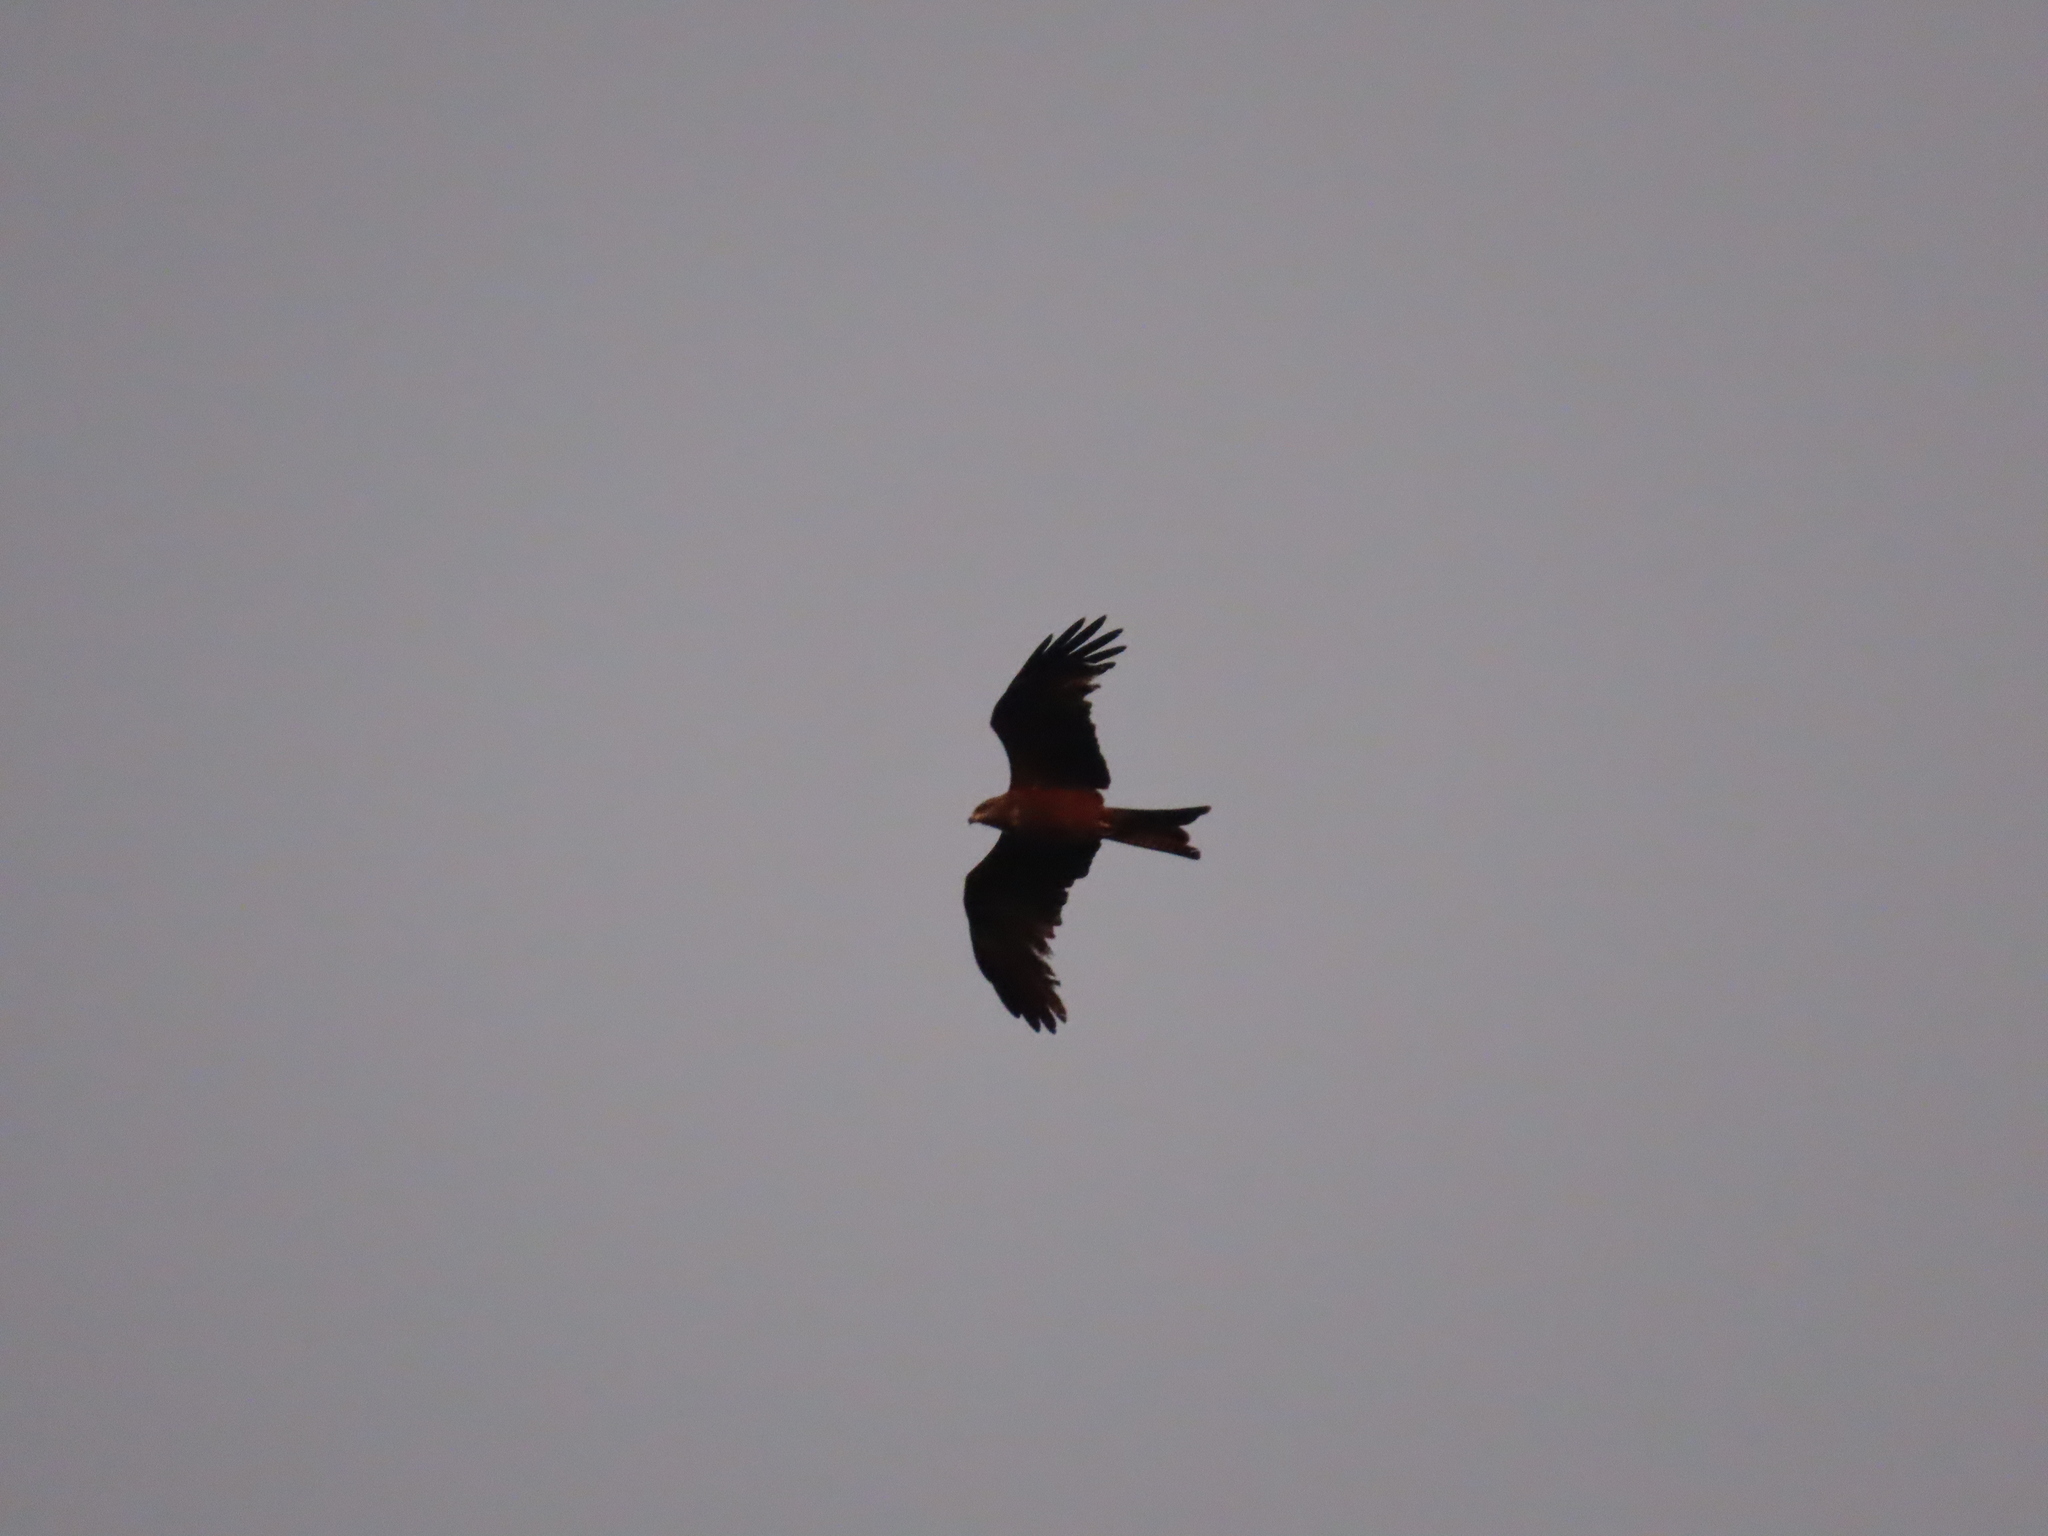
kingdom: Animalia
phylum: Chordata
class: Aves
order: Accipitriformes
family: Accipitridae
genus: Milvus
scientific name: Milvus migrans
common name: Black kite
